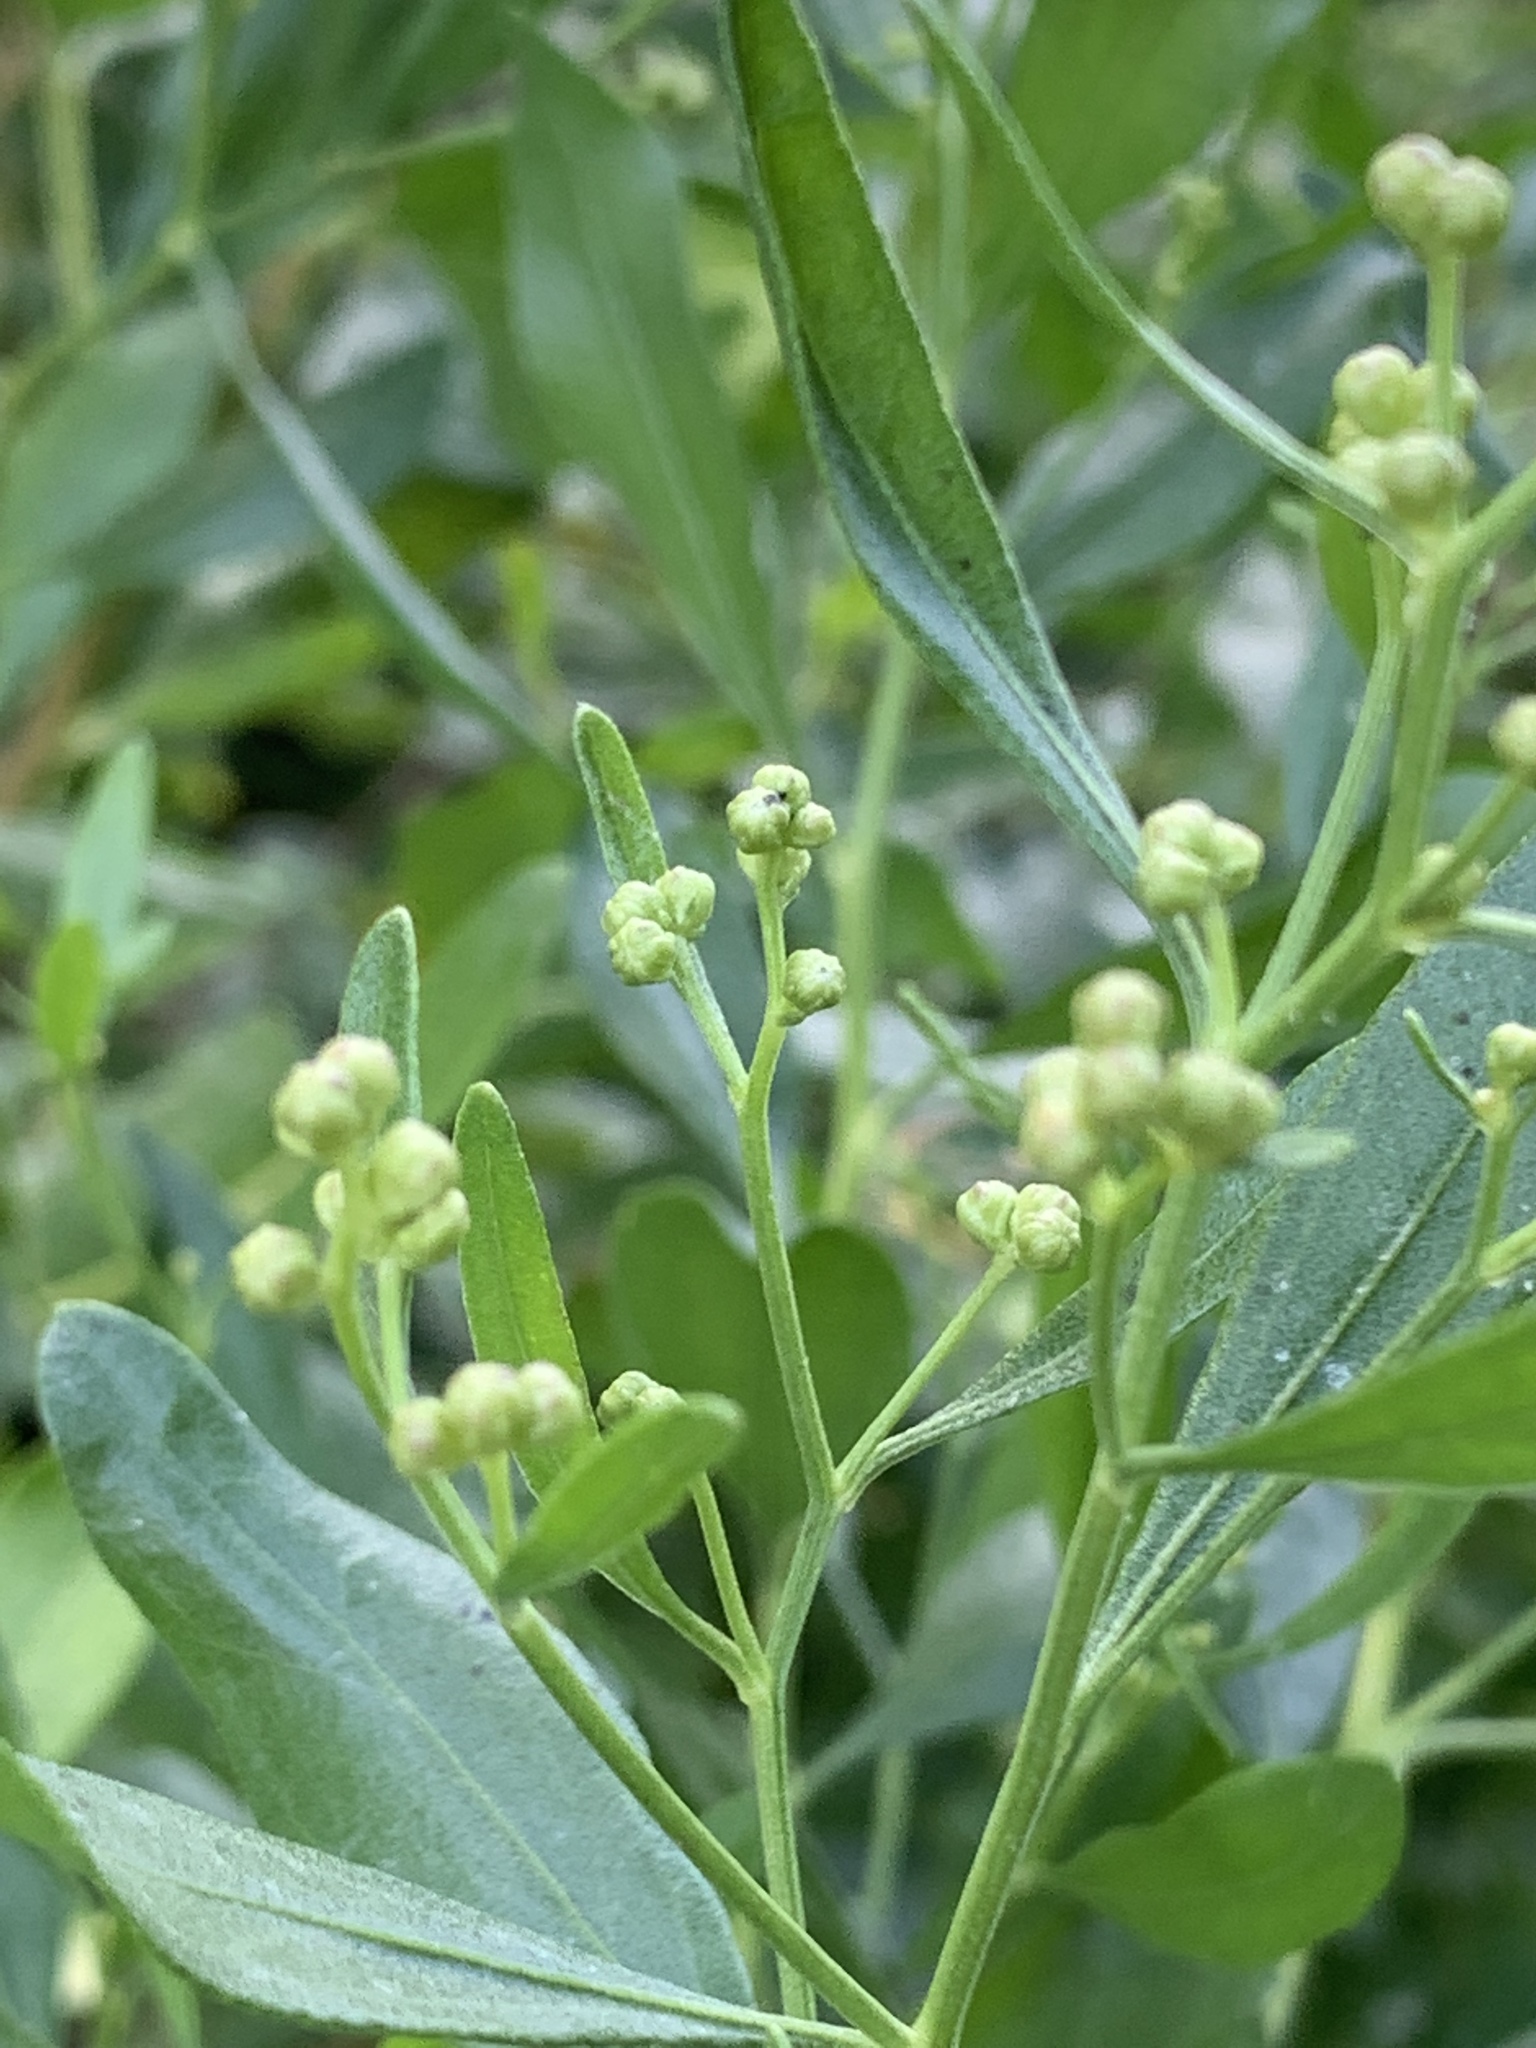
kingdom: Plantae
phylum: Tracheophyta
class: Magnoliopsida
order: Asterales
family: Asteraceae
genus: Baccharis
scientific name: Baccharis halimifolia
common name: Eastern baccharis
